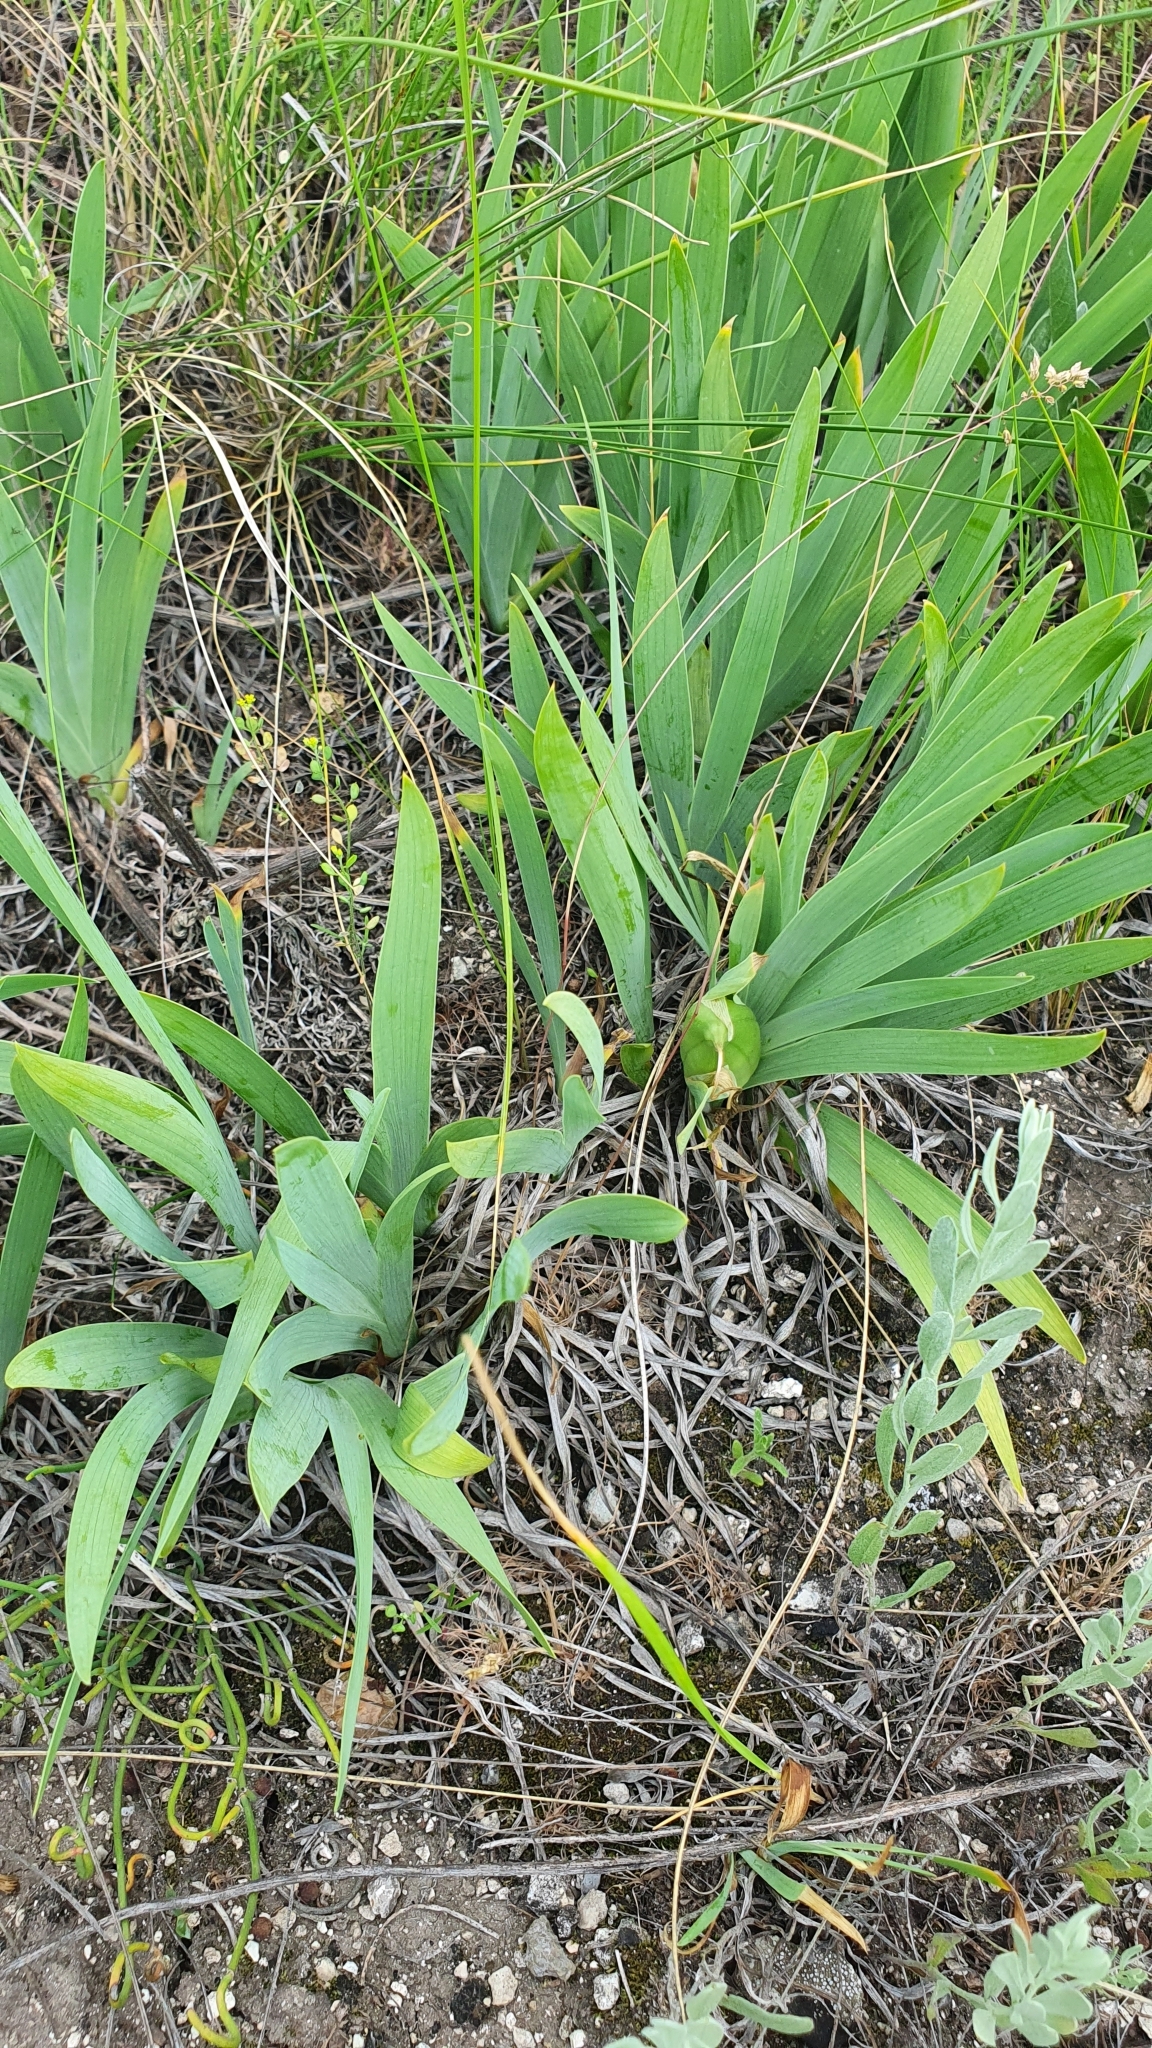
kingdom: Plantae
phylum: Tracheophyta
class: Liliopsida
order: Asparagales
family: Iridaceae
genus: Iris
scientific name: Iris pumila
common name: Dwarf iris
